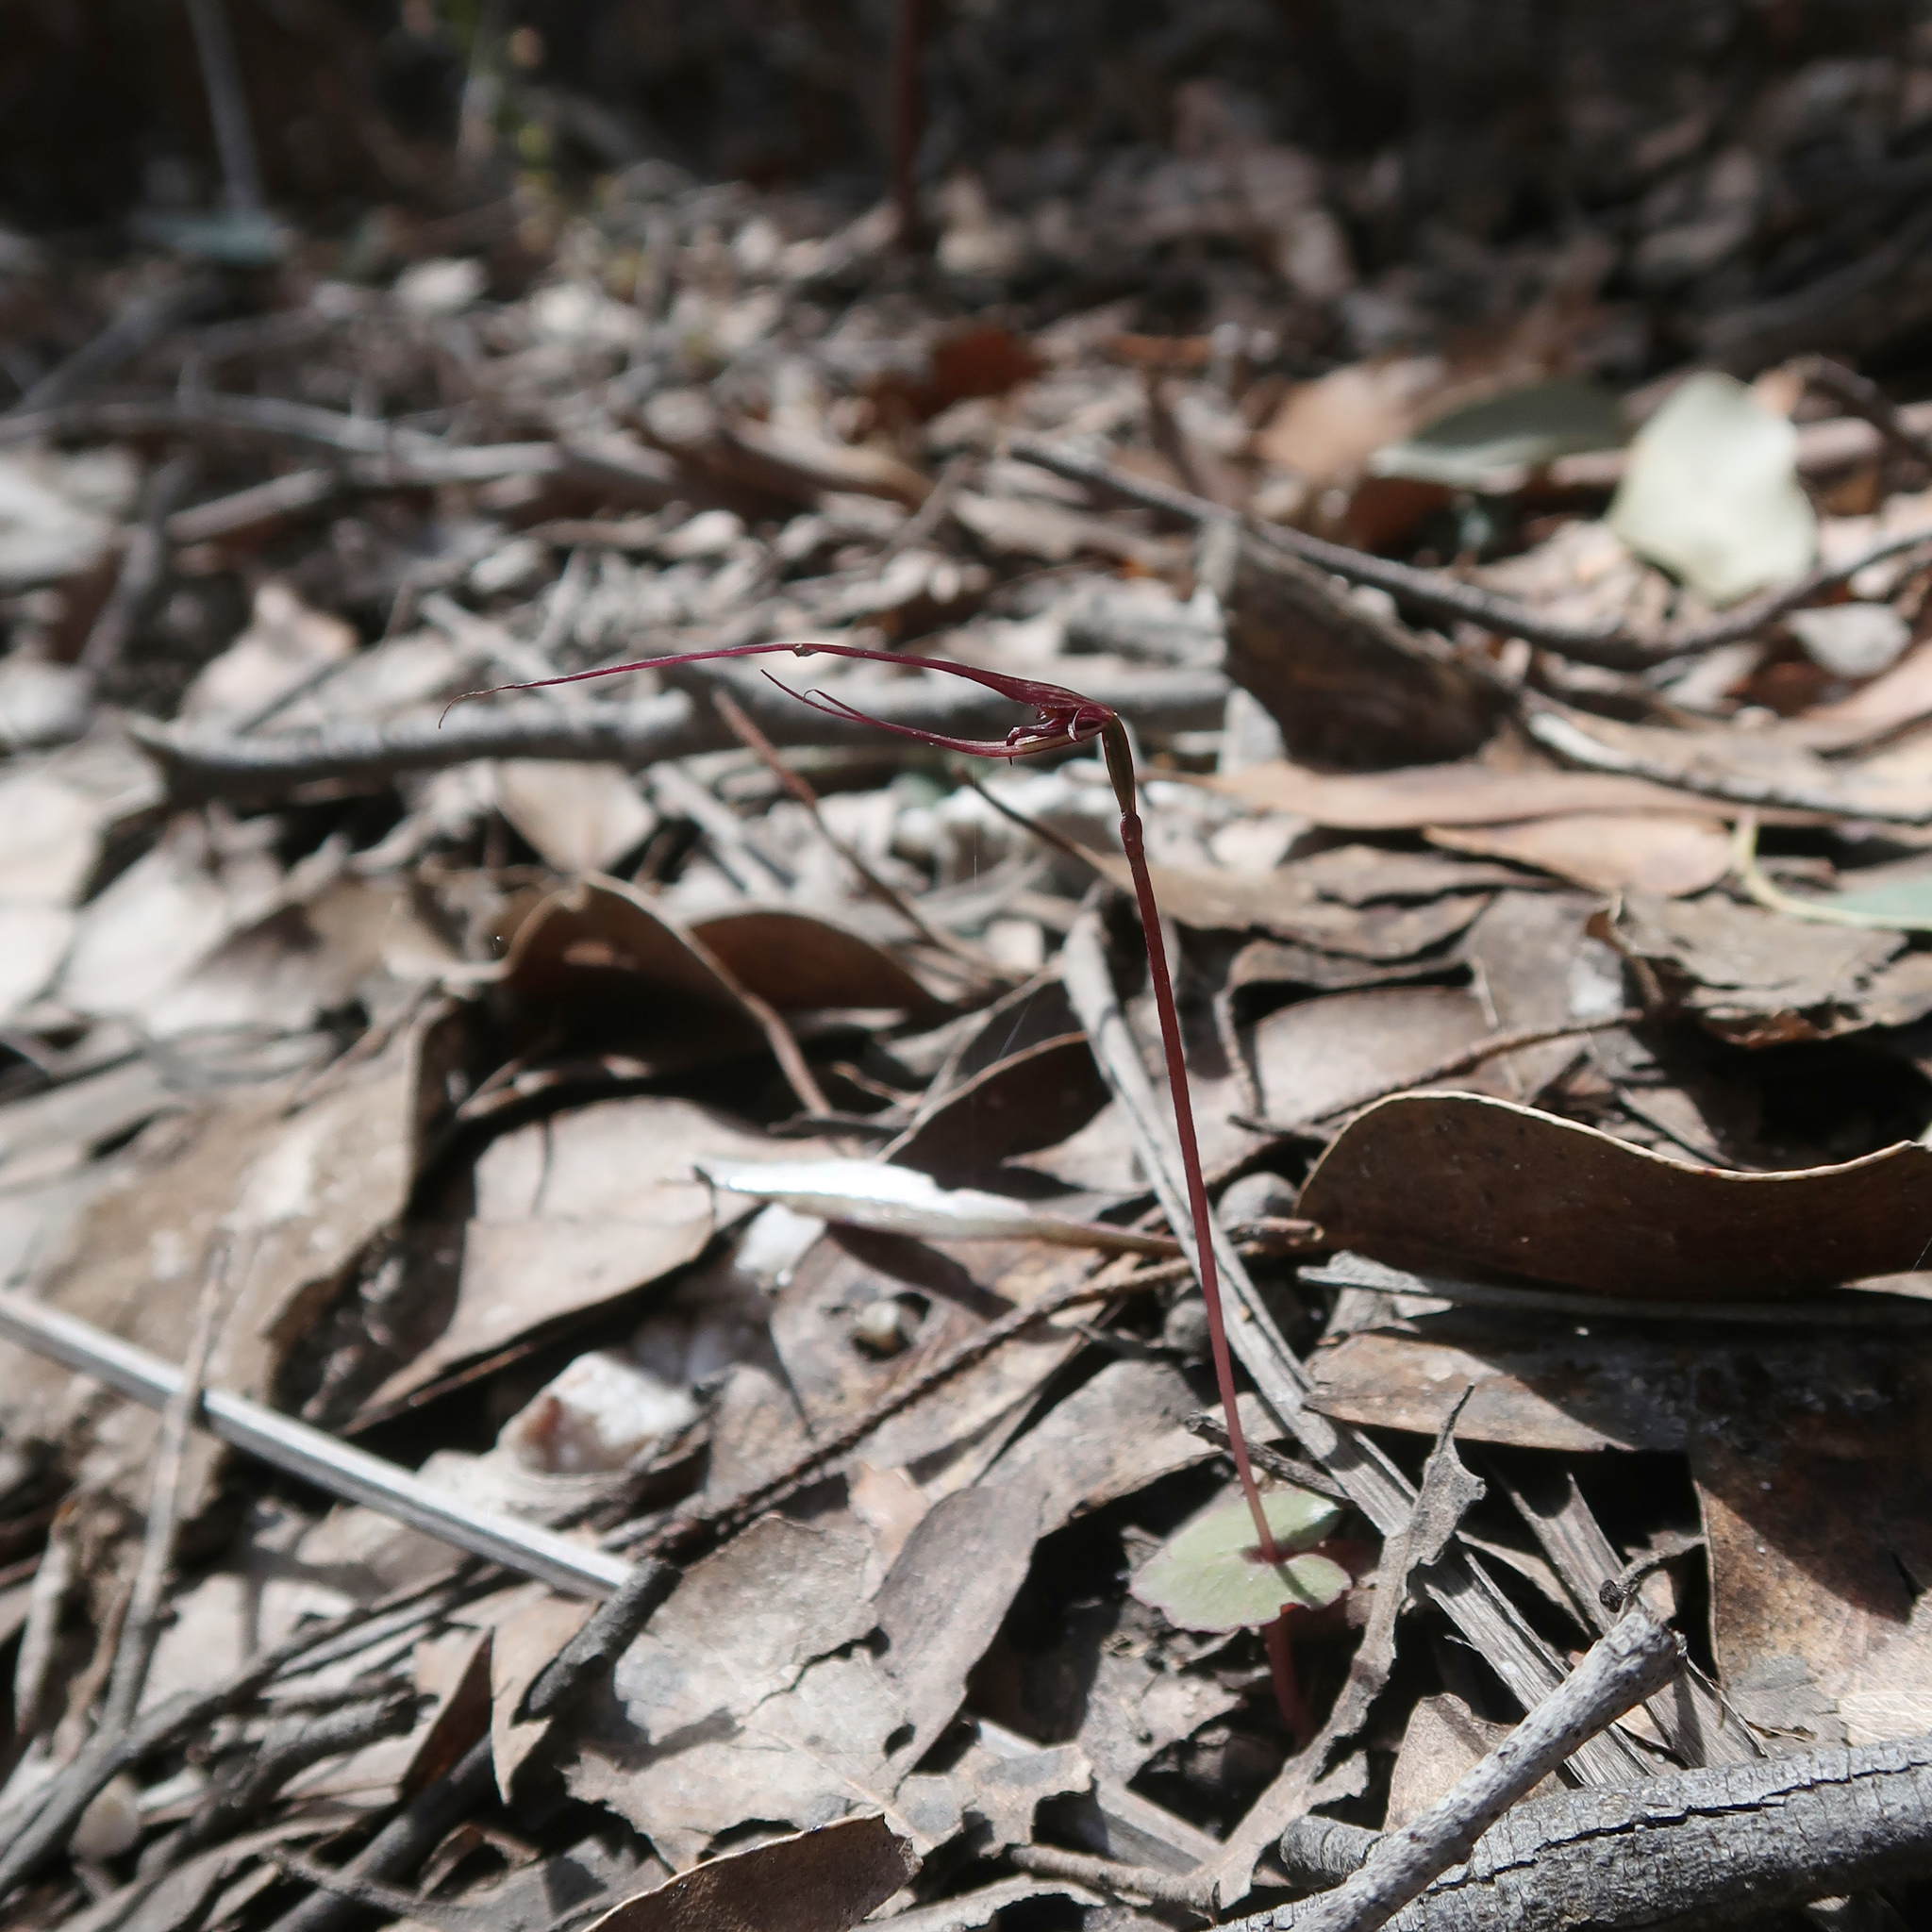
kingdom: Plantae
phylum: Tracheophyta
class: Liliopsida
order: Asparagales
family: Orchidaceae
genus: Acianthus
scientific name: Acianthus caudatus
